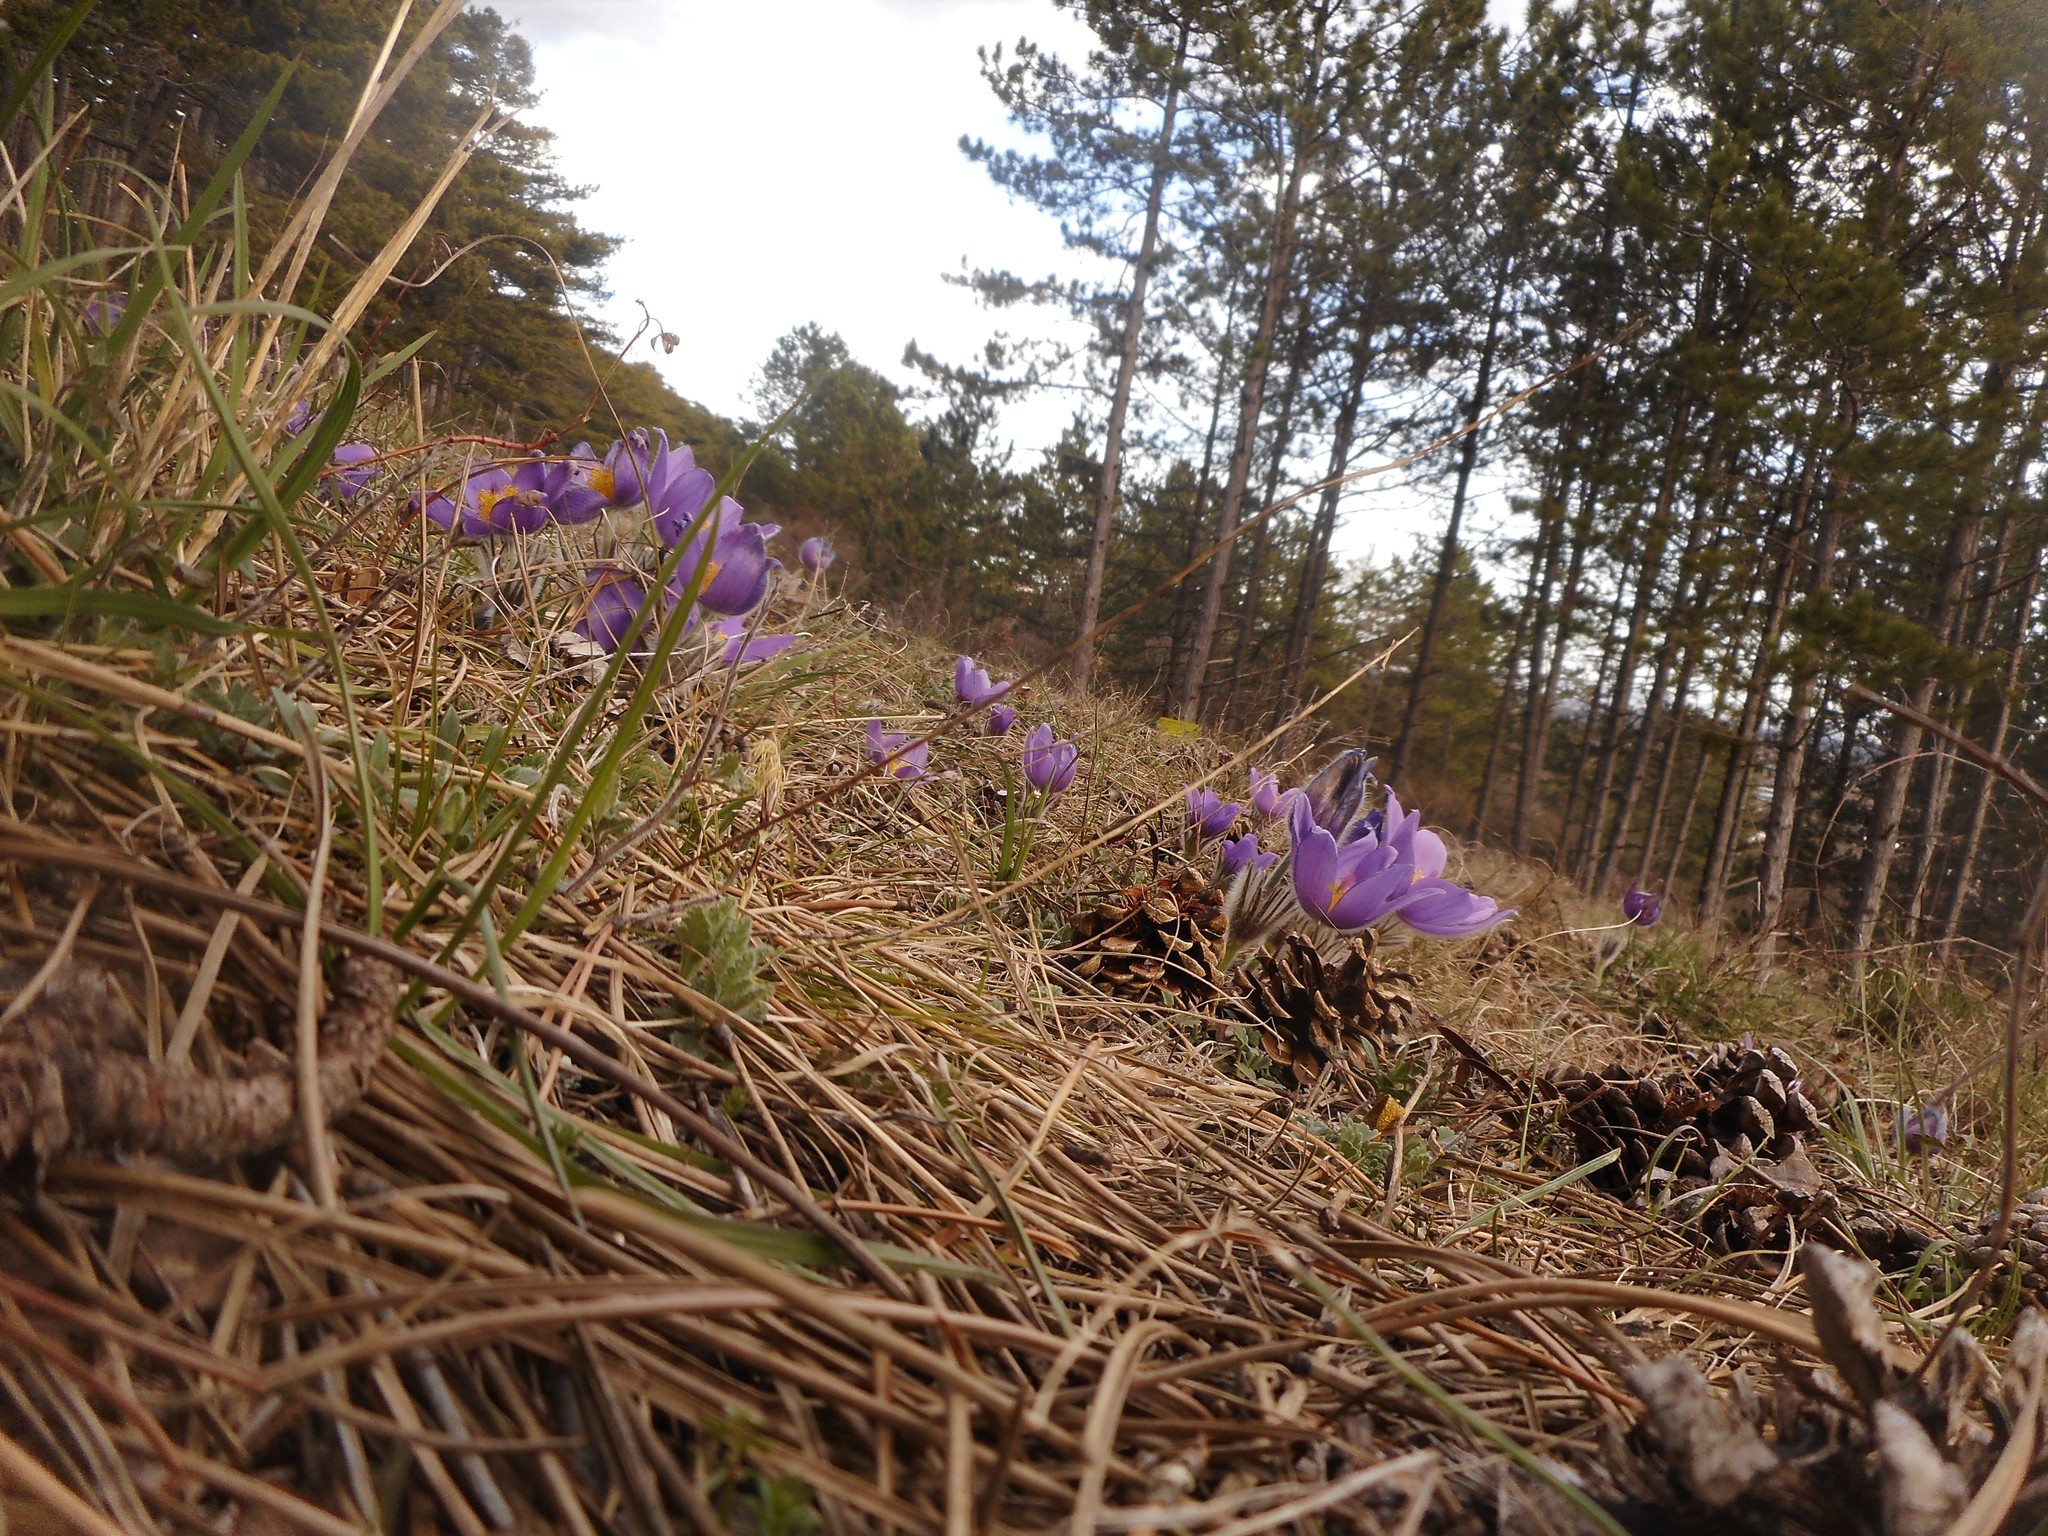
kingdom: Plantae
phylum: Tracheophyta
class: Magnoliopsida
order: Ranunculales
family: Ranunculaceae
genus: Pulsatilla
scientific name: Pulsatilla grandis
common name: Greater pasque flower
